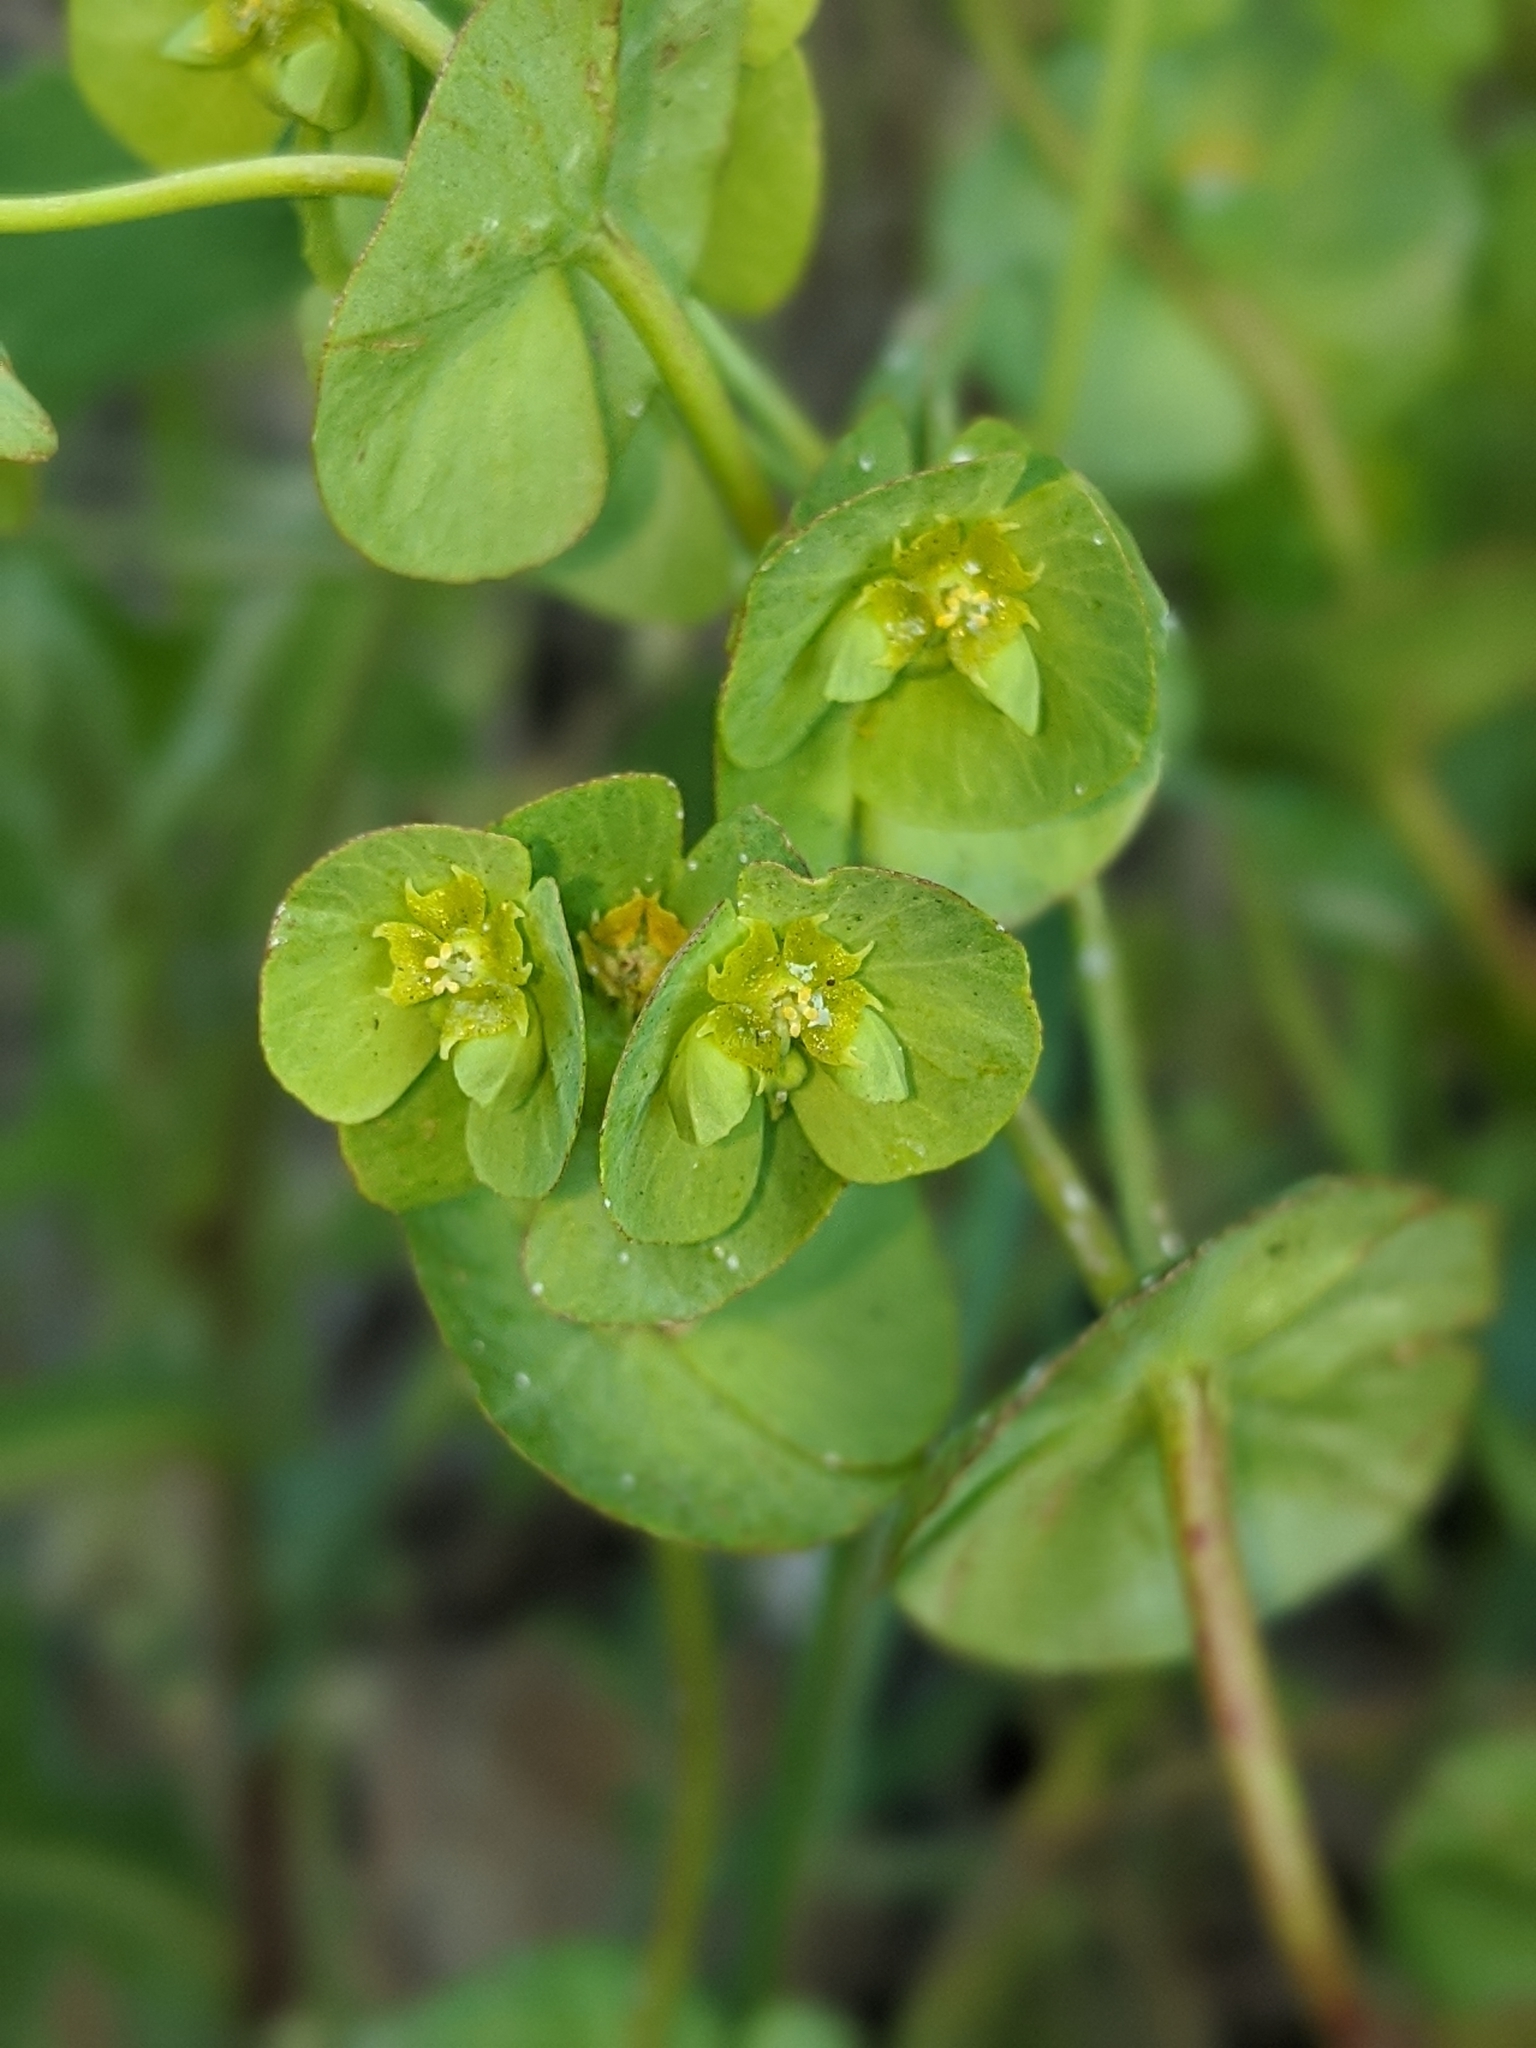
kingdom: Plantae
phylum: Tracheophyta
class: Magnoliopsida
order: Malpighiales
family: Euphorbiaceae
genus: Euphorbia
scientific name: Euphorbia crenulata
